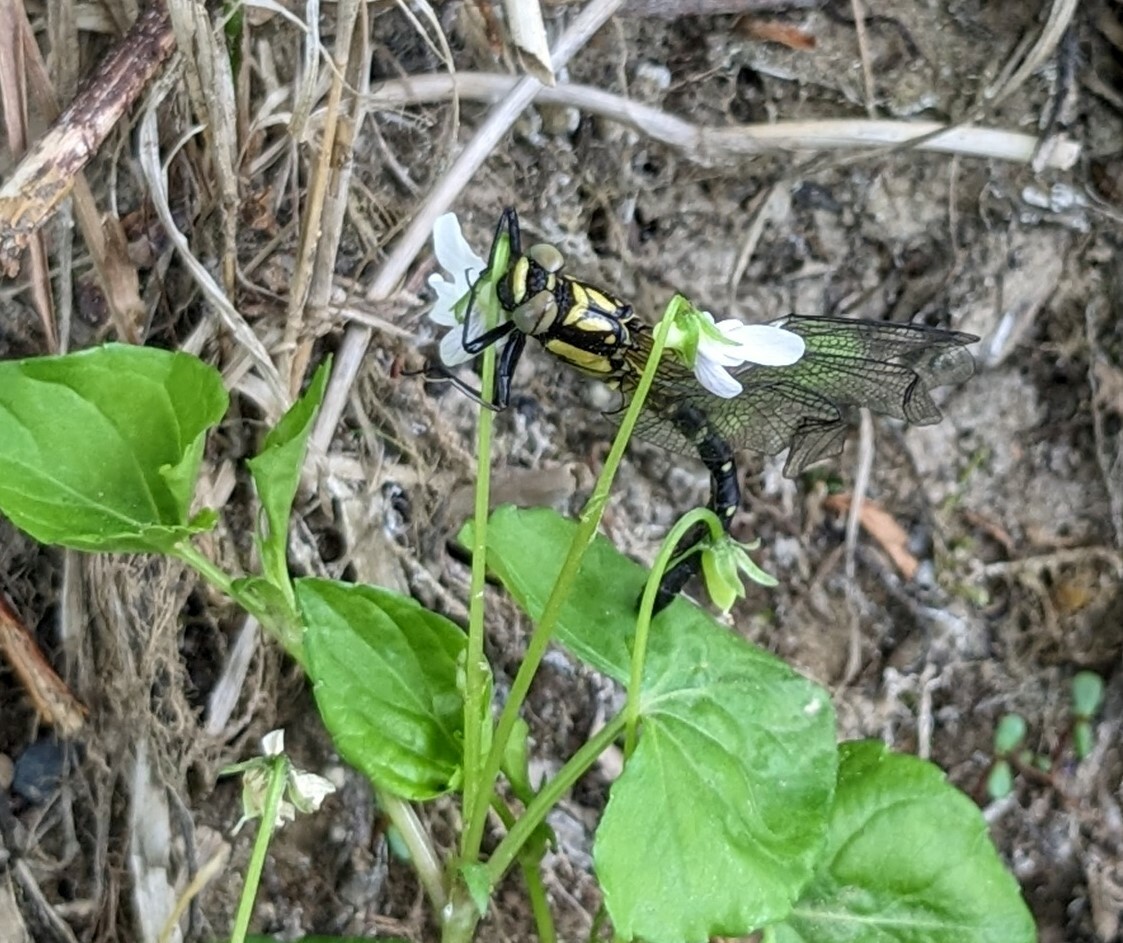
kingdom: Animalia
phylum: Arthropoda
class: Insecta
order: Odonata
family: Gomphidae
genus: Davidius
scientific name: Davidius lunatus
